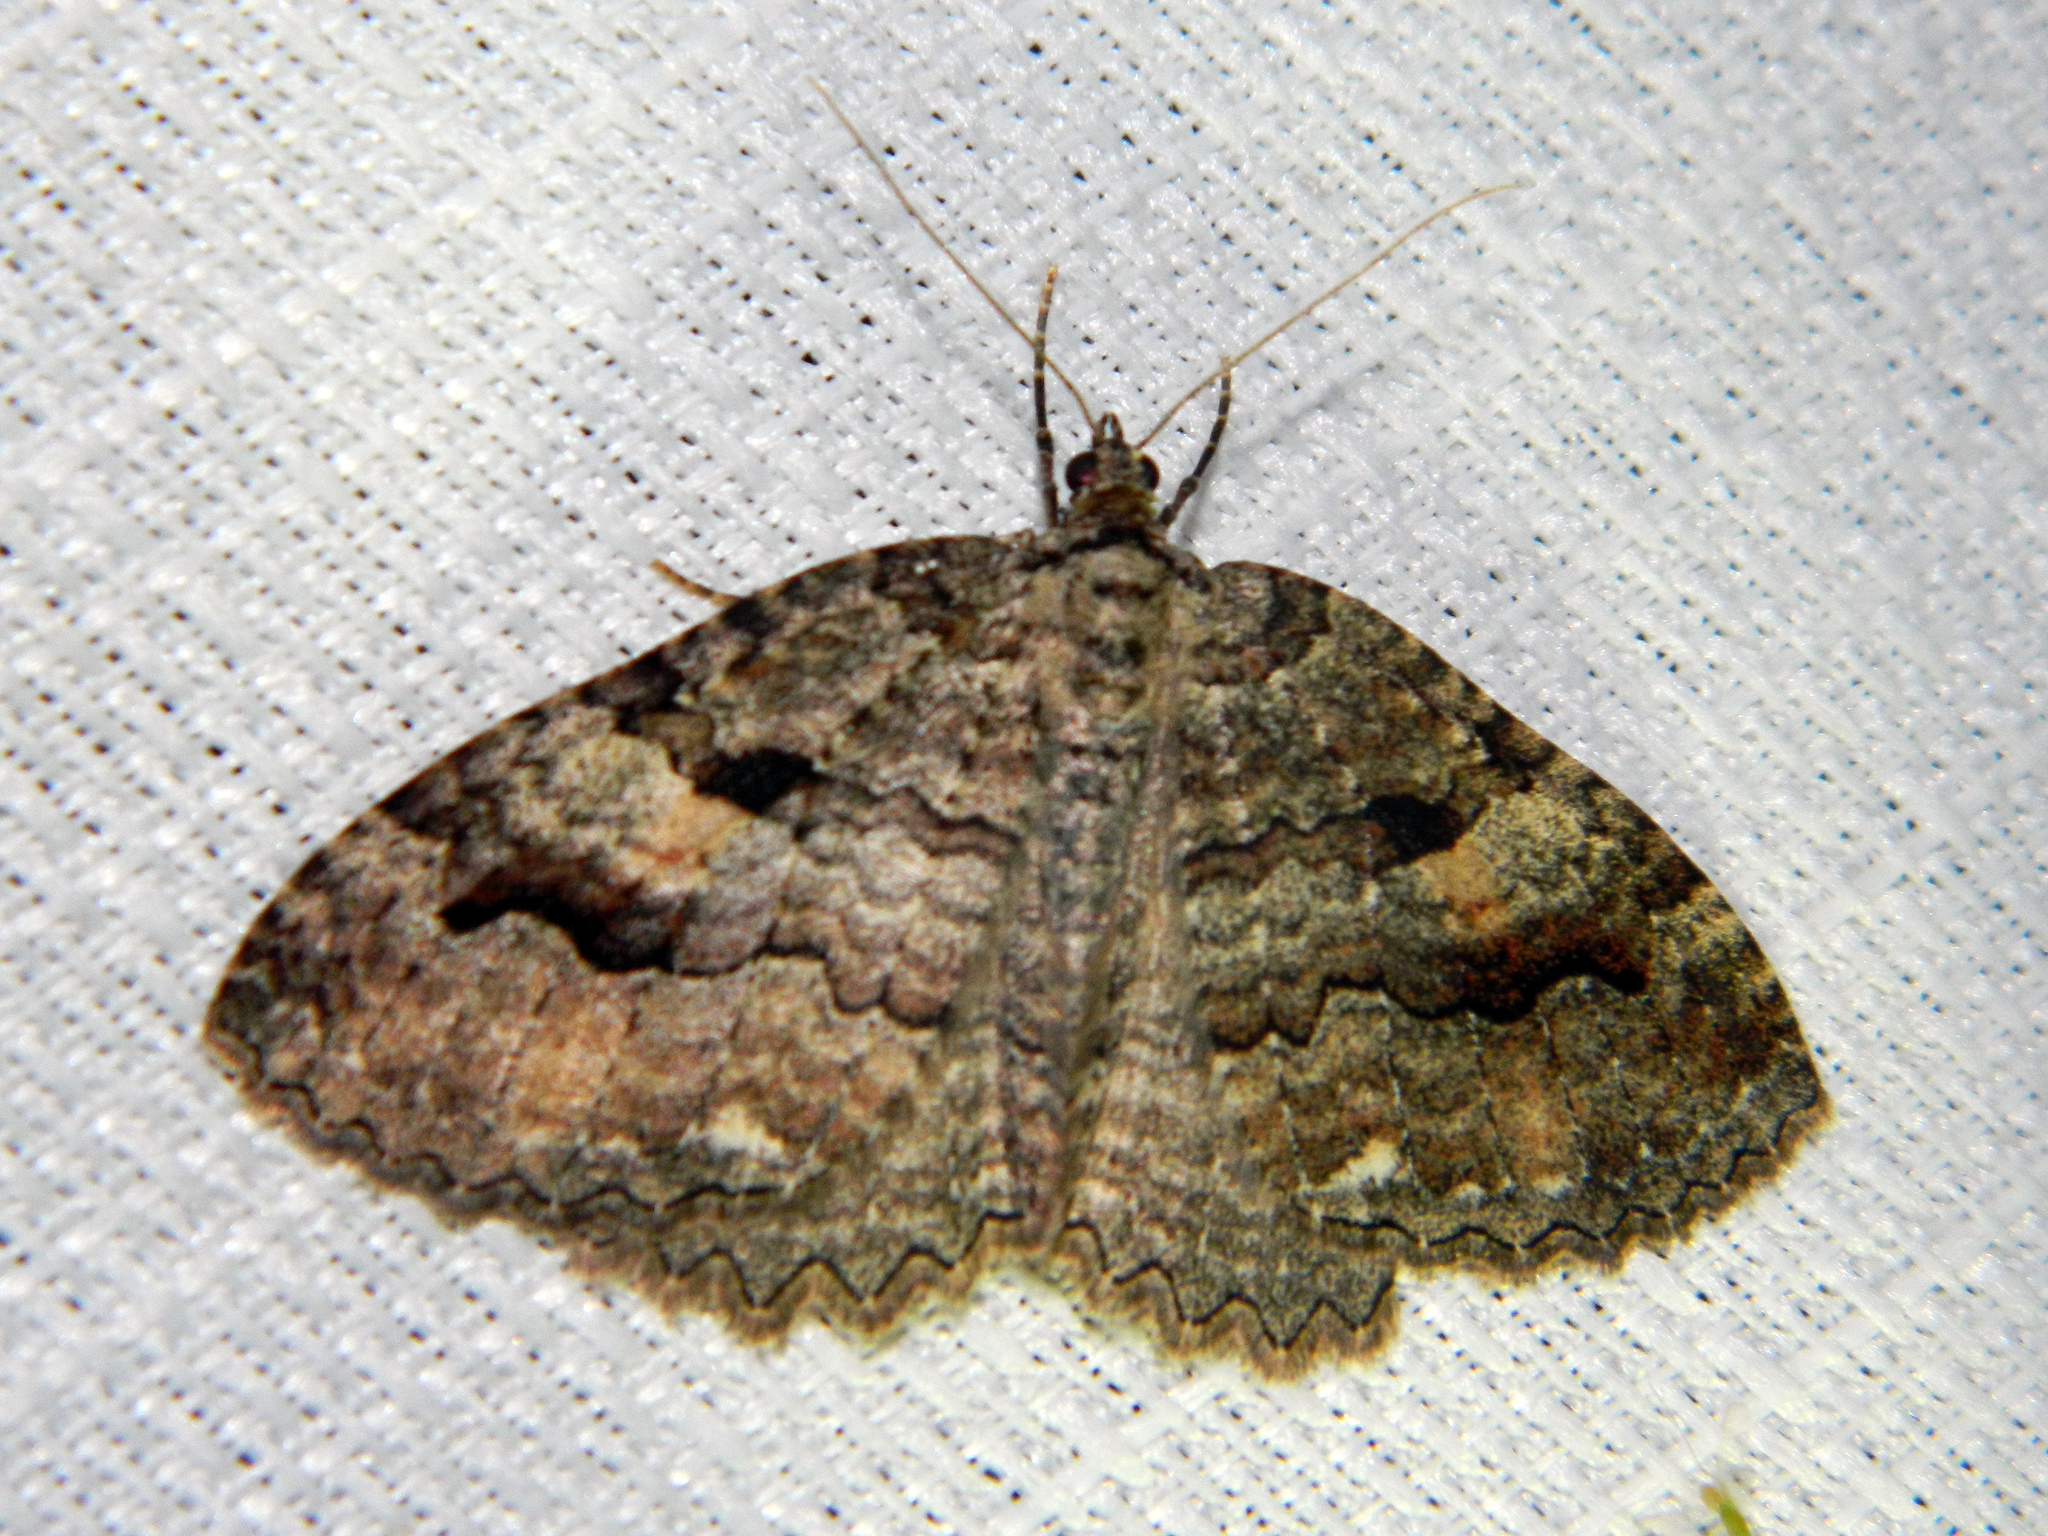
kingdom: Animalia
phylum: Arthropoda
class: Insecta
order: Lepidoptera
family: Geometridae
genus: Triphosa
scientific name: Triphosa haesitata
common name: Tissue moth
